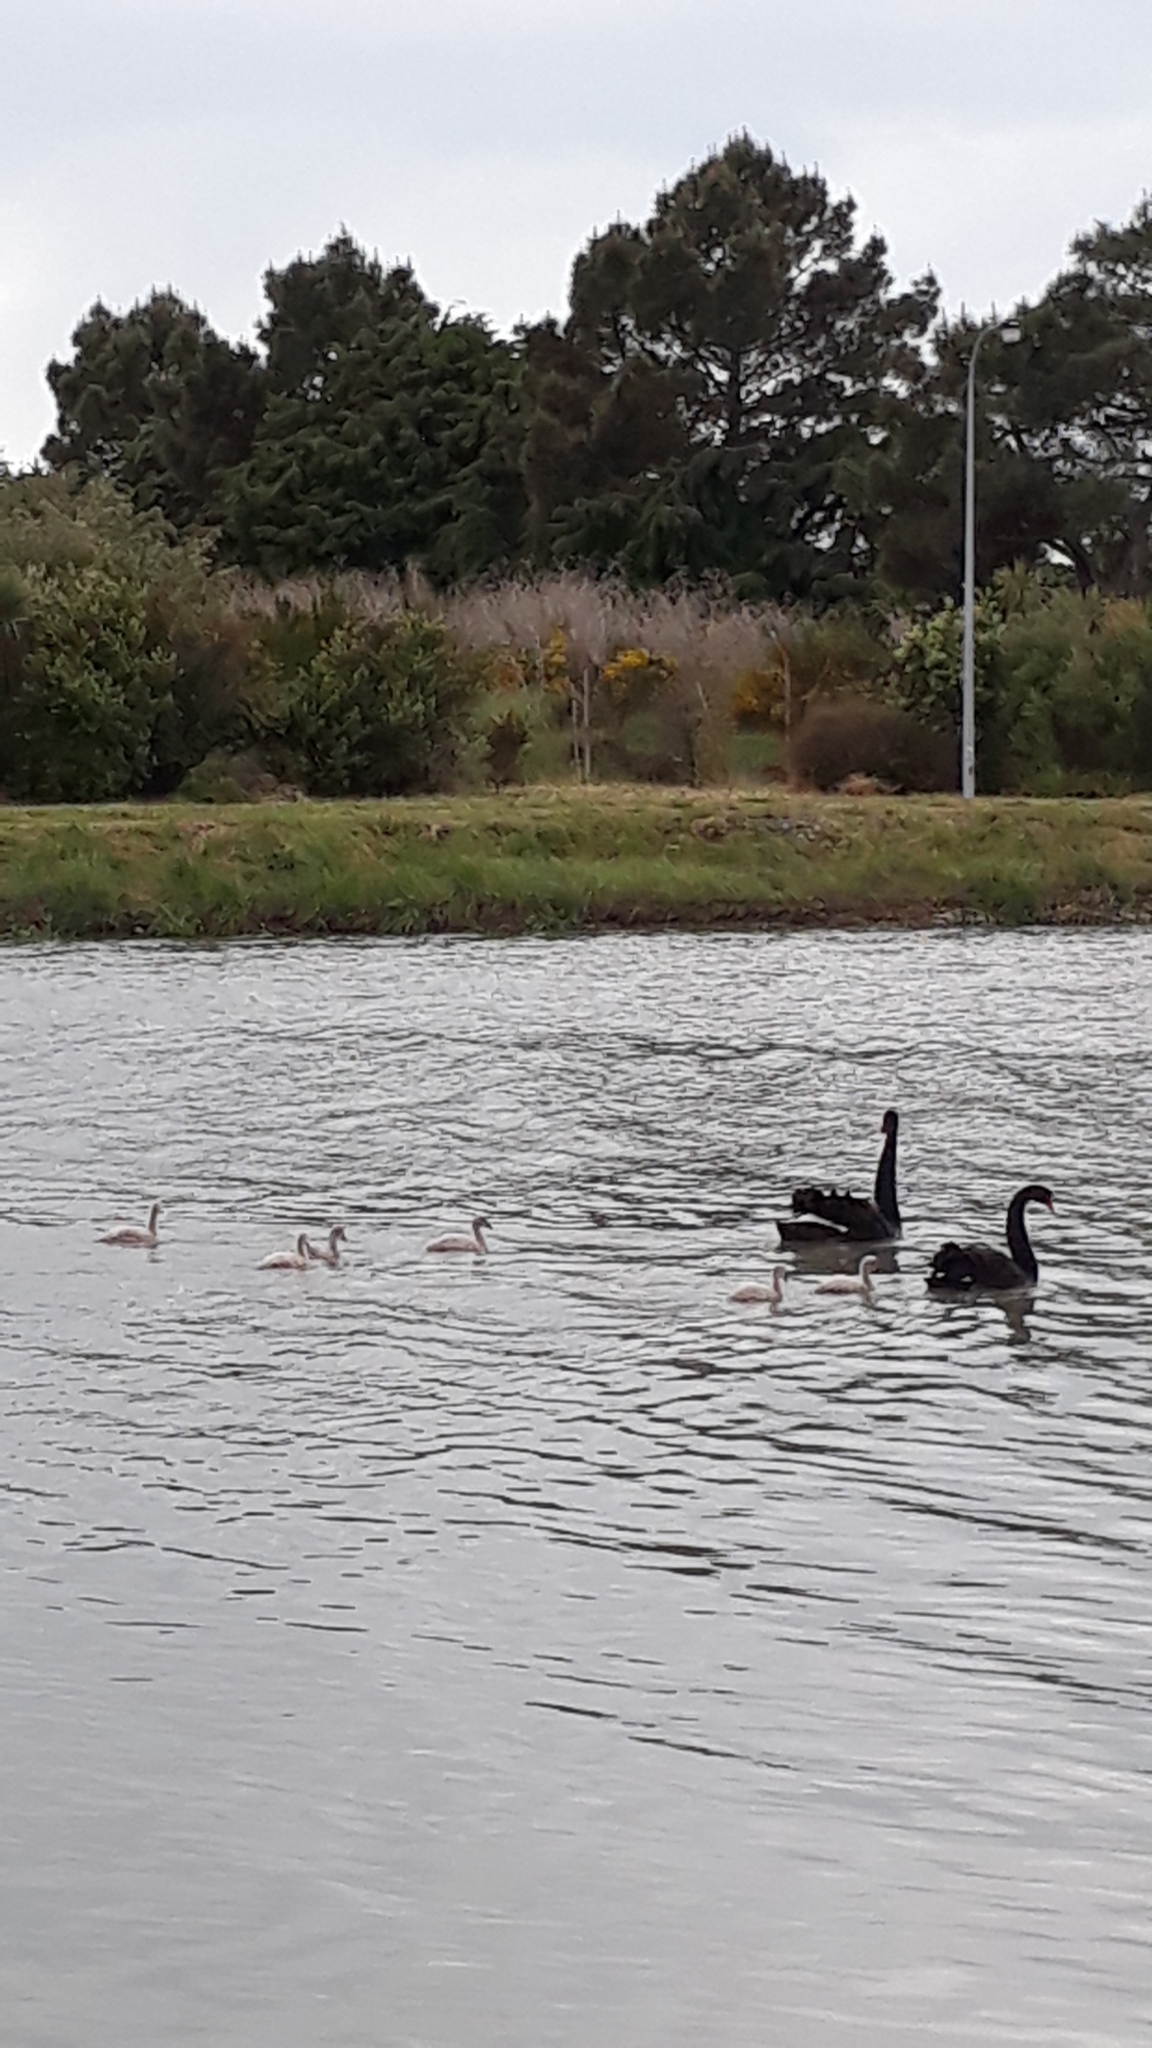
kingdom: Animalia
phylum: Chordata
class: Aves
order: Anseriformes
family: Anatidae
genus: Cygnus
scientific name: Cygnus atratus
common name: Black swan
